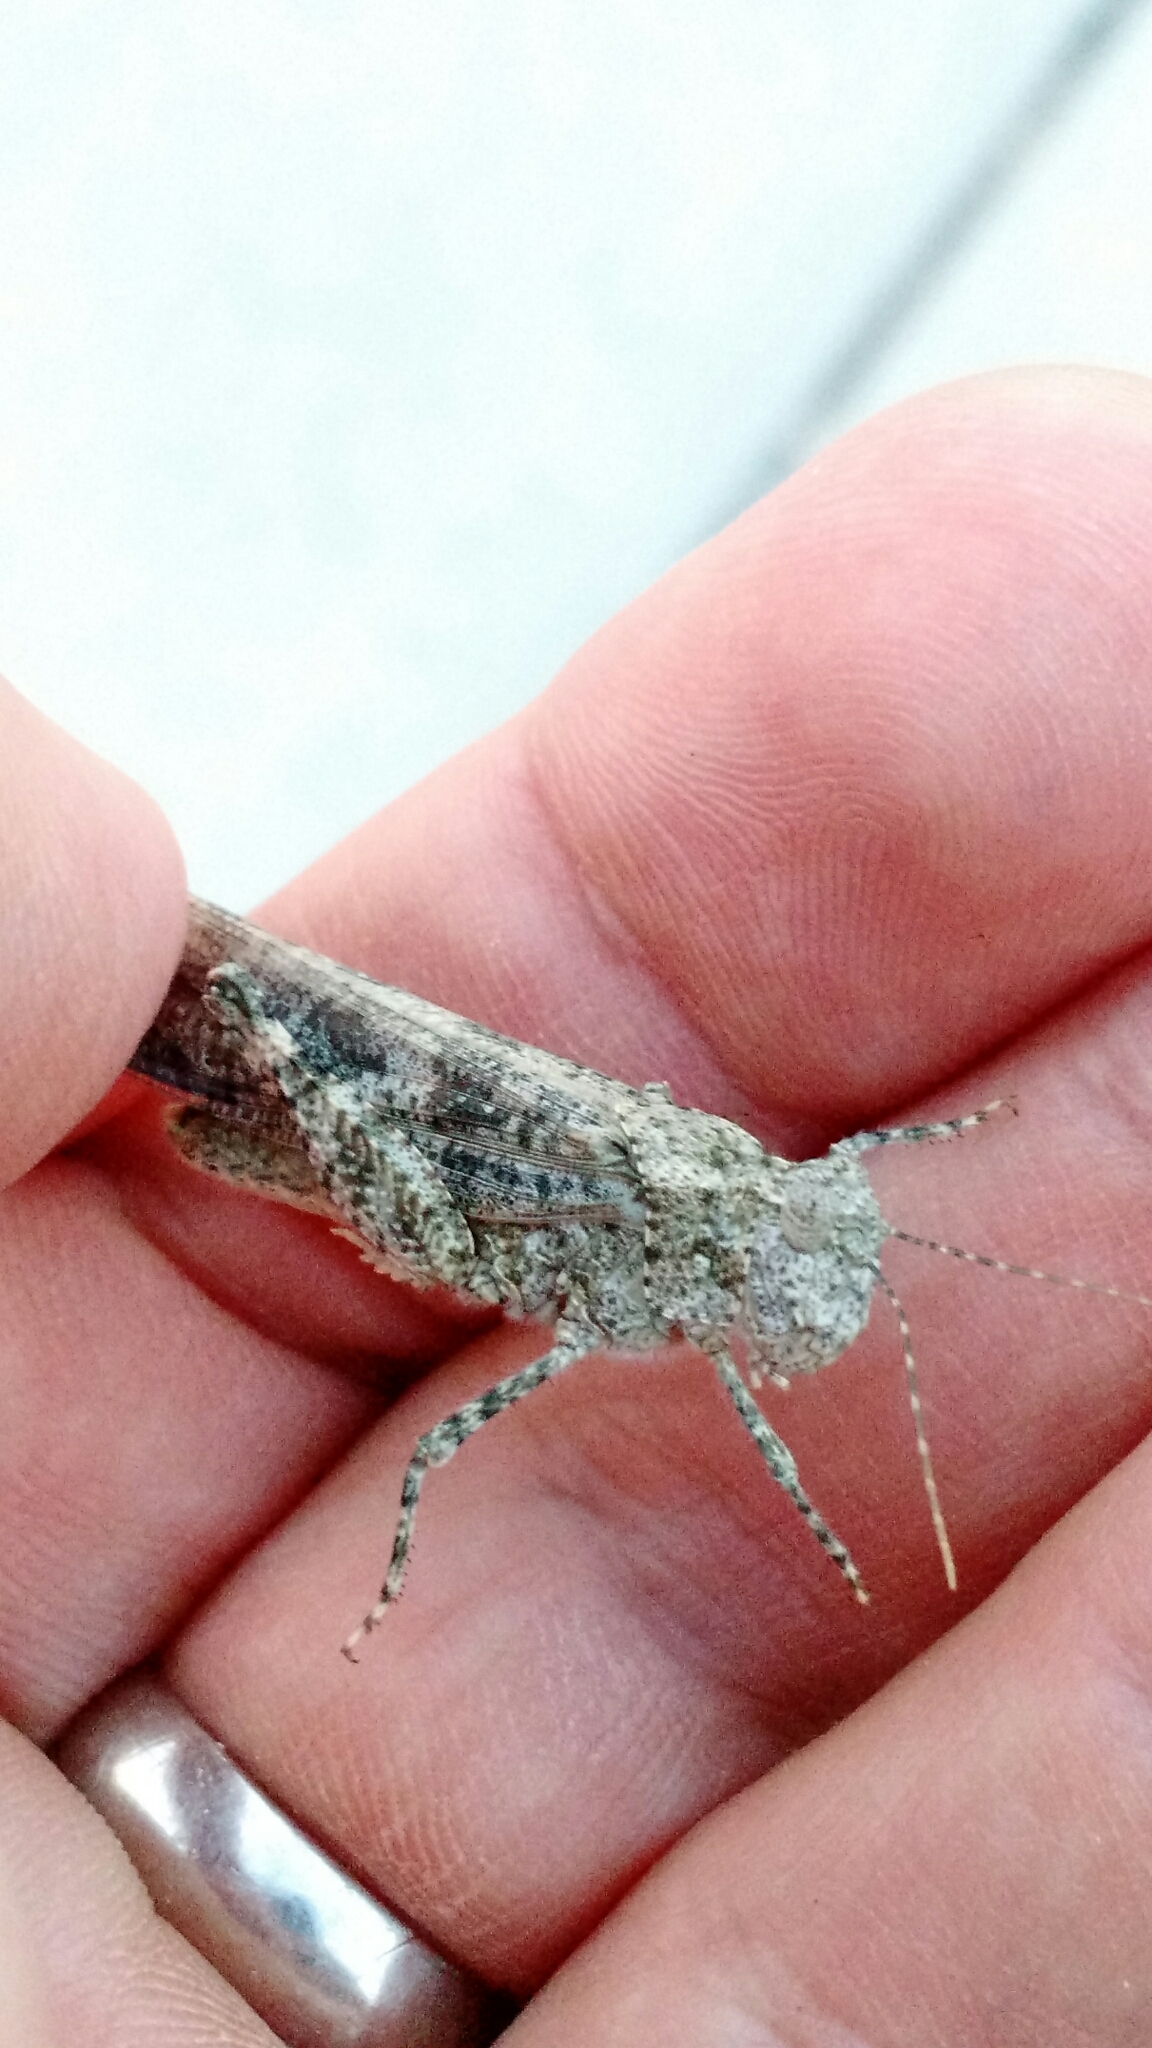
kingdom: Animalia
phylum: Arthropoda
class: Insecta
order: Orthoptera
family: Acrididae
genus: Trimerotropis
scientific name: Trimerotropis pallidipennis
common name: Pallid-winged grasshopper
